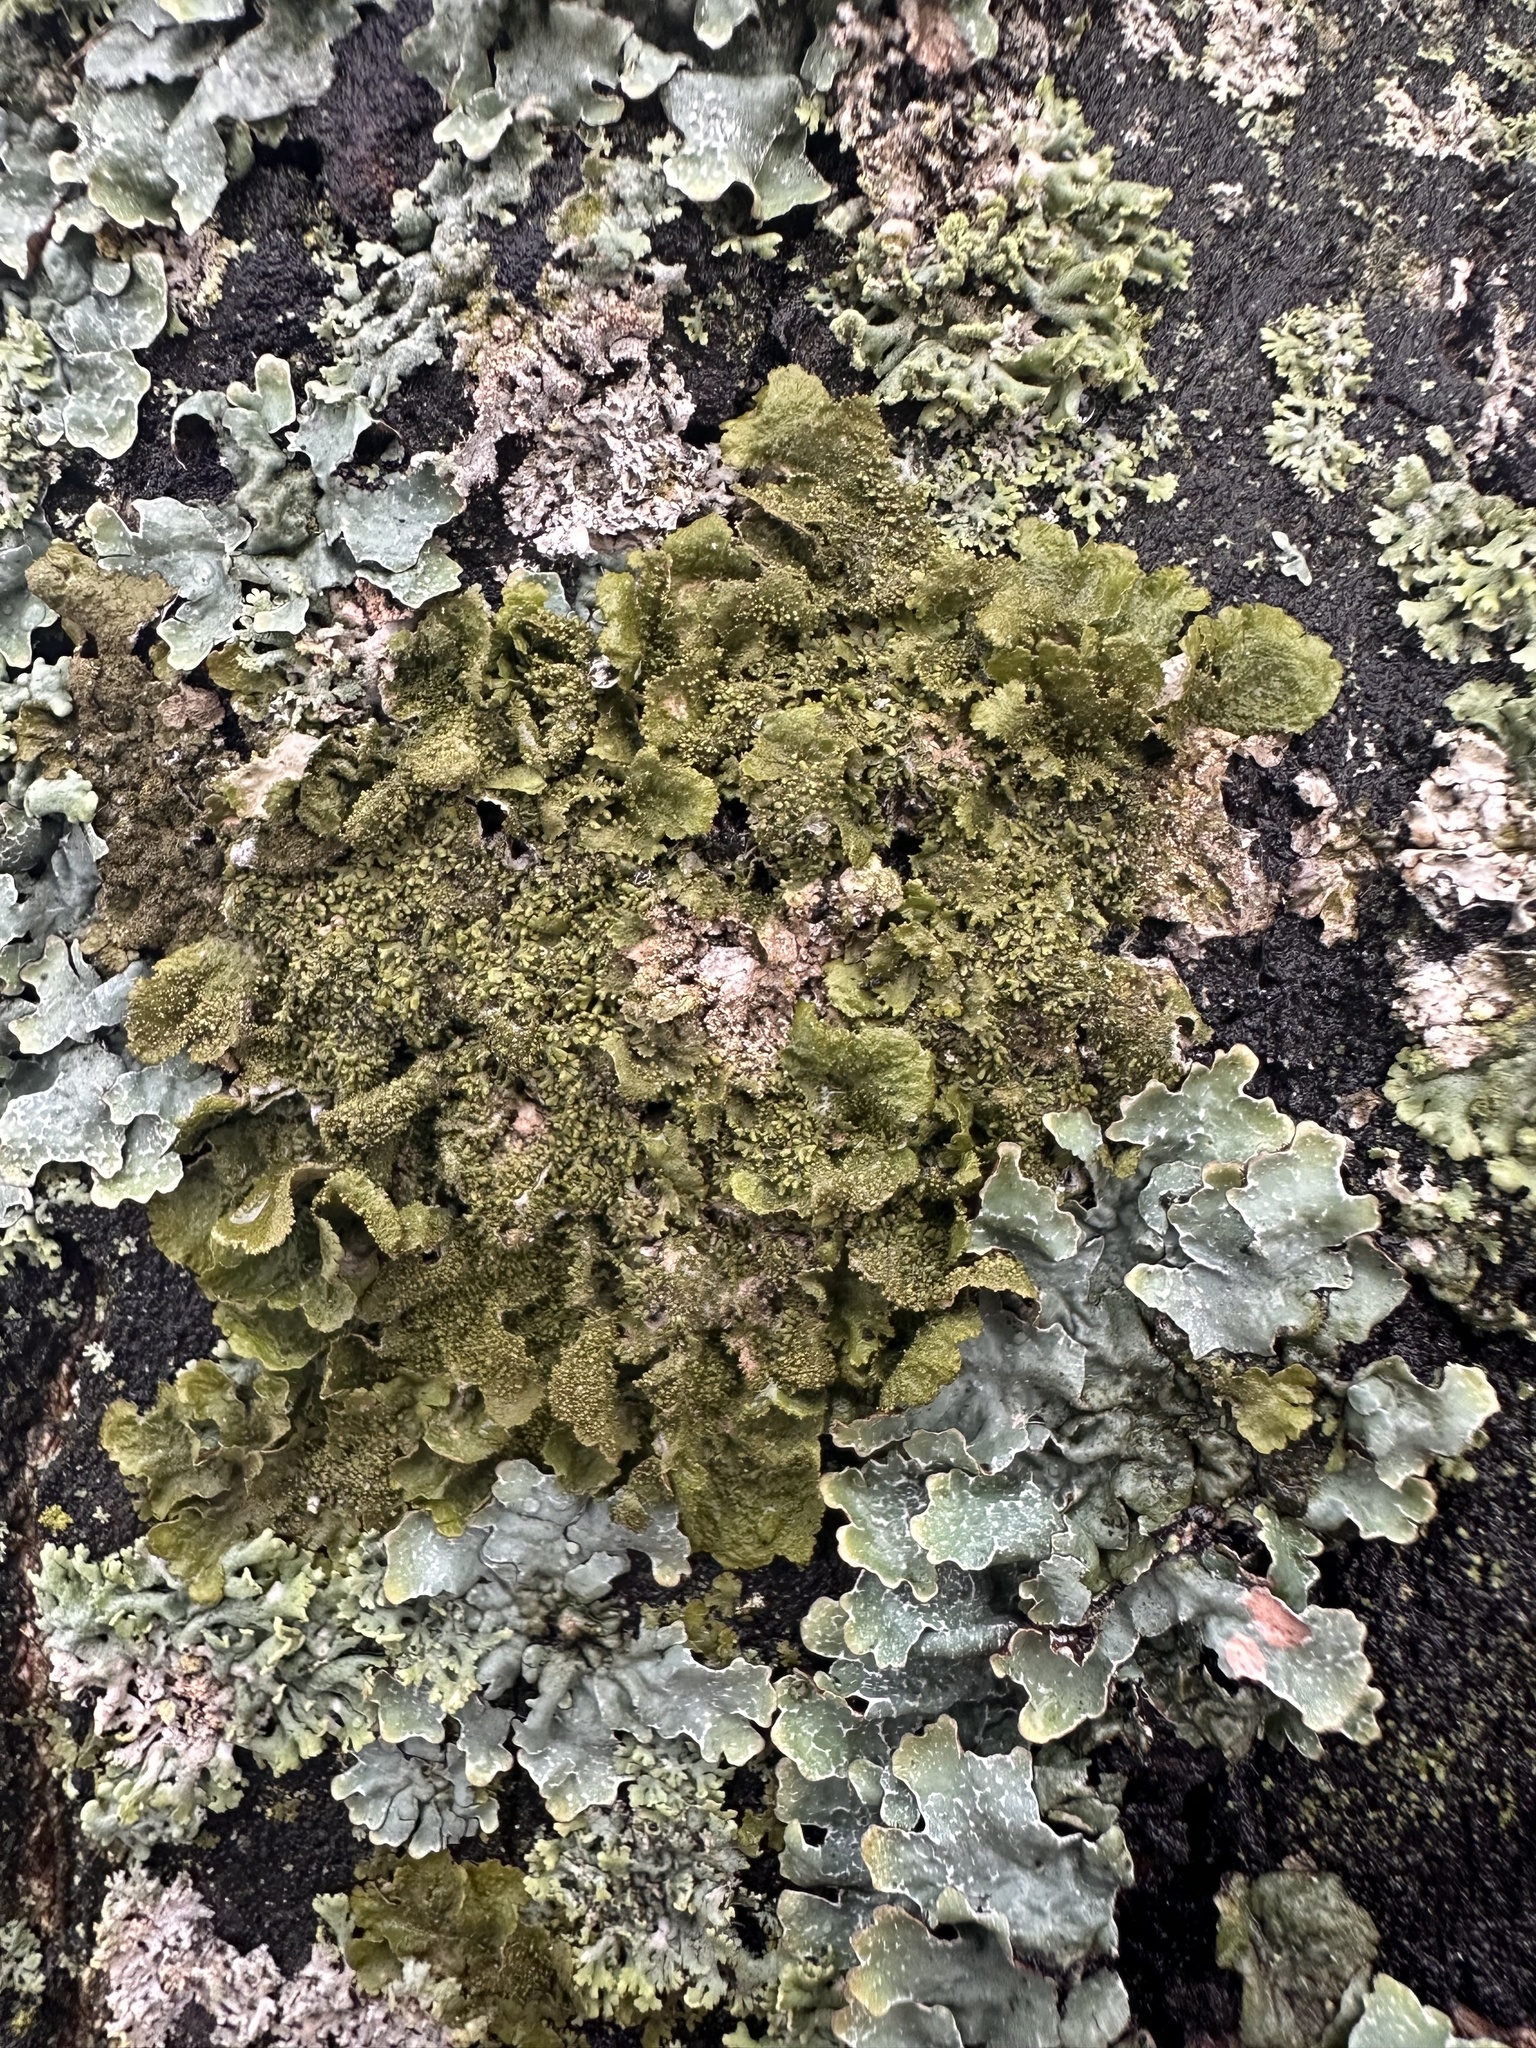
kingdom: Fungi
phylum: Ascomycota
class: Lecanoromycetes
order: Lecanorales
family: Parmeliaceae
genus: Melanohalea
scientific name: Melanohalea exasperatula
